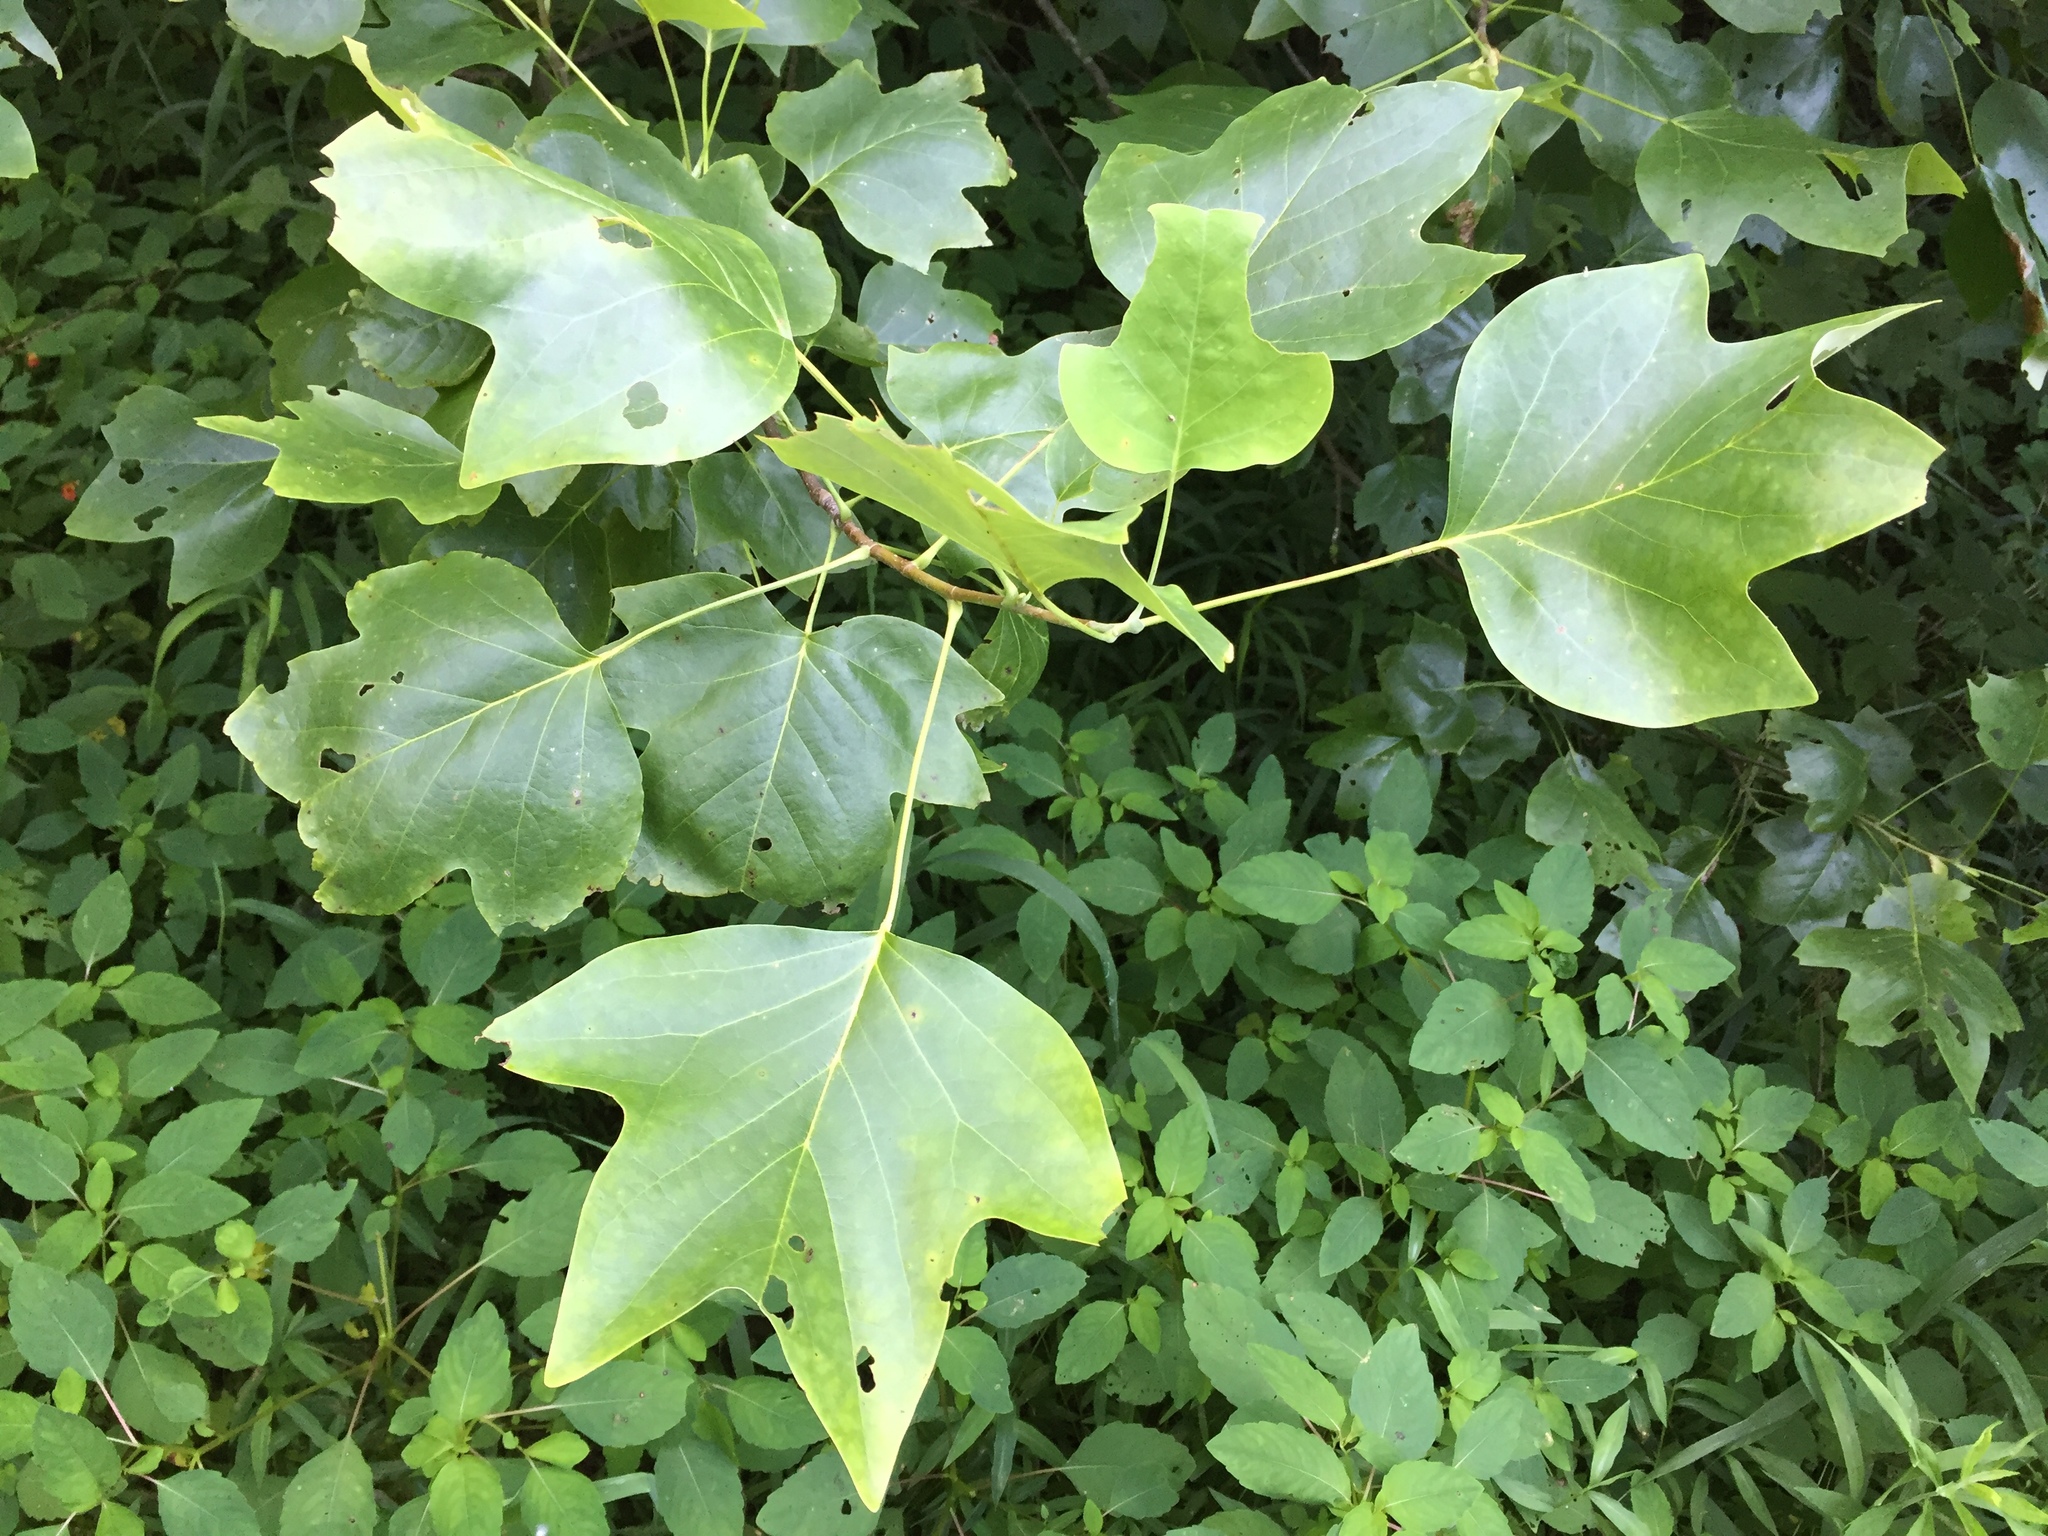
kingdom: Plantae
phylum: Tracheophyta
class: Magnoliopsida
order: Magnoliales
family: Magnoliaceae
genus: Liriodendron
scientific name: Liriodendron tulipifera
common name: Tulip tree
